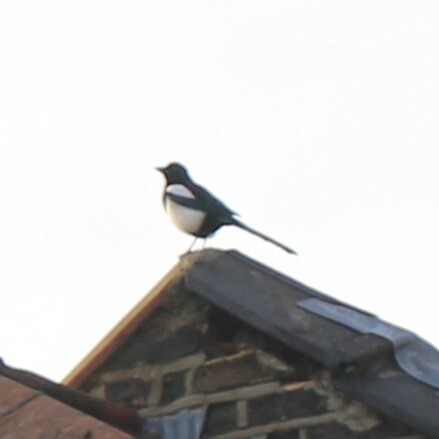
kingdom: Animalia
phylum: Chordata
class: Aves
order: Passeriformes
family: Corvidae
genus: Pica
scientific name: Pica pica
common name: Eurasian magpie
